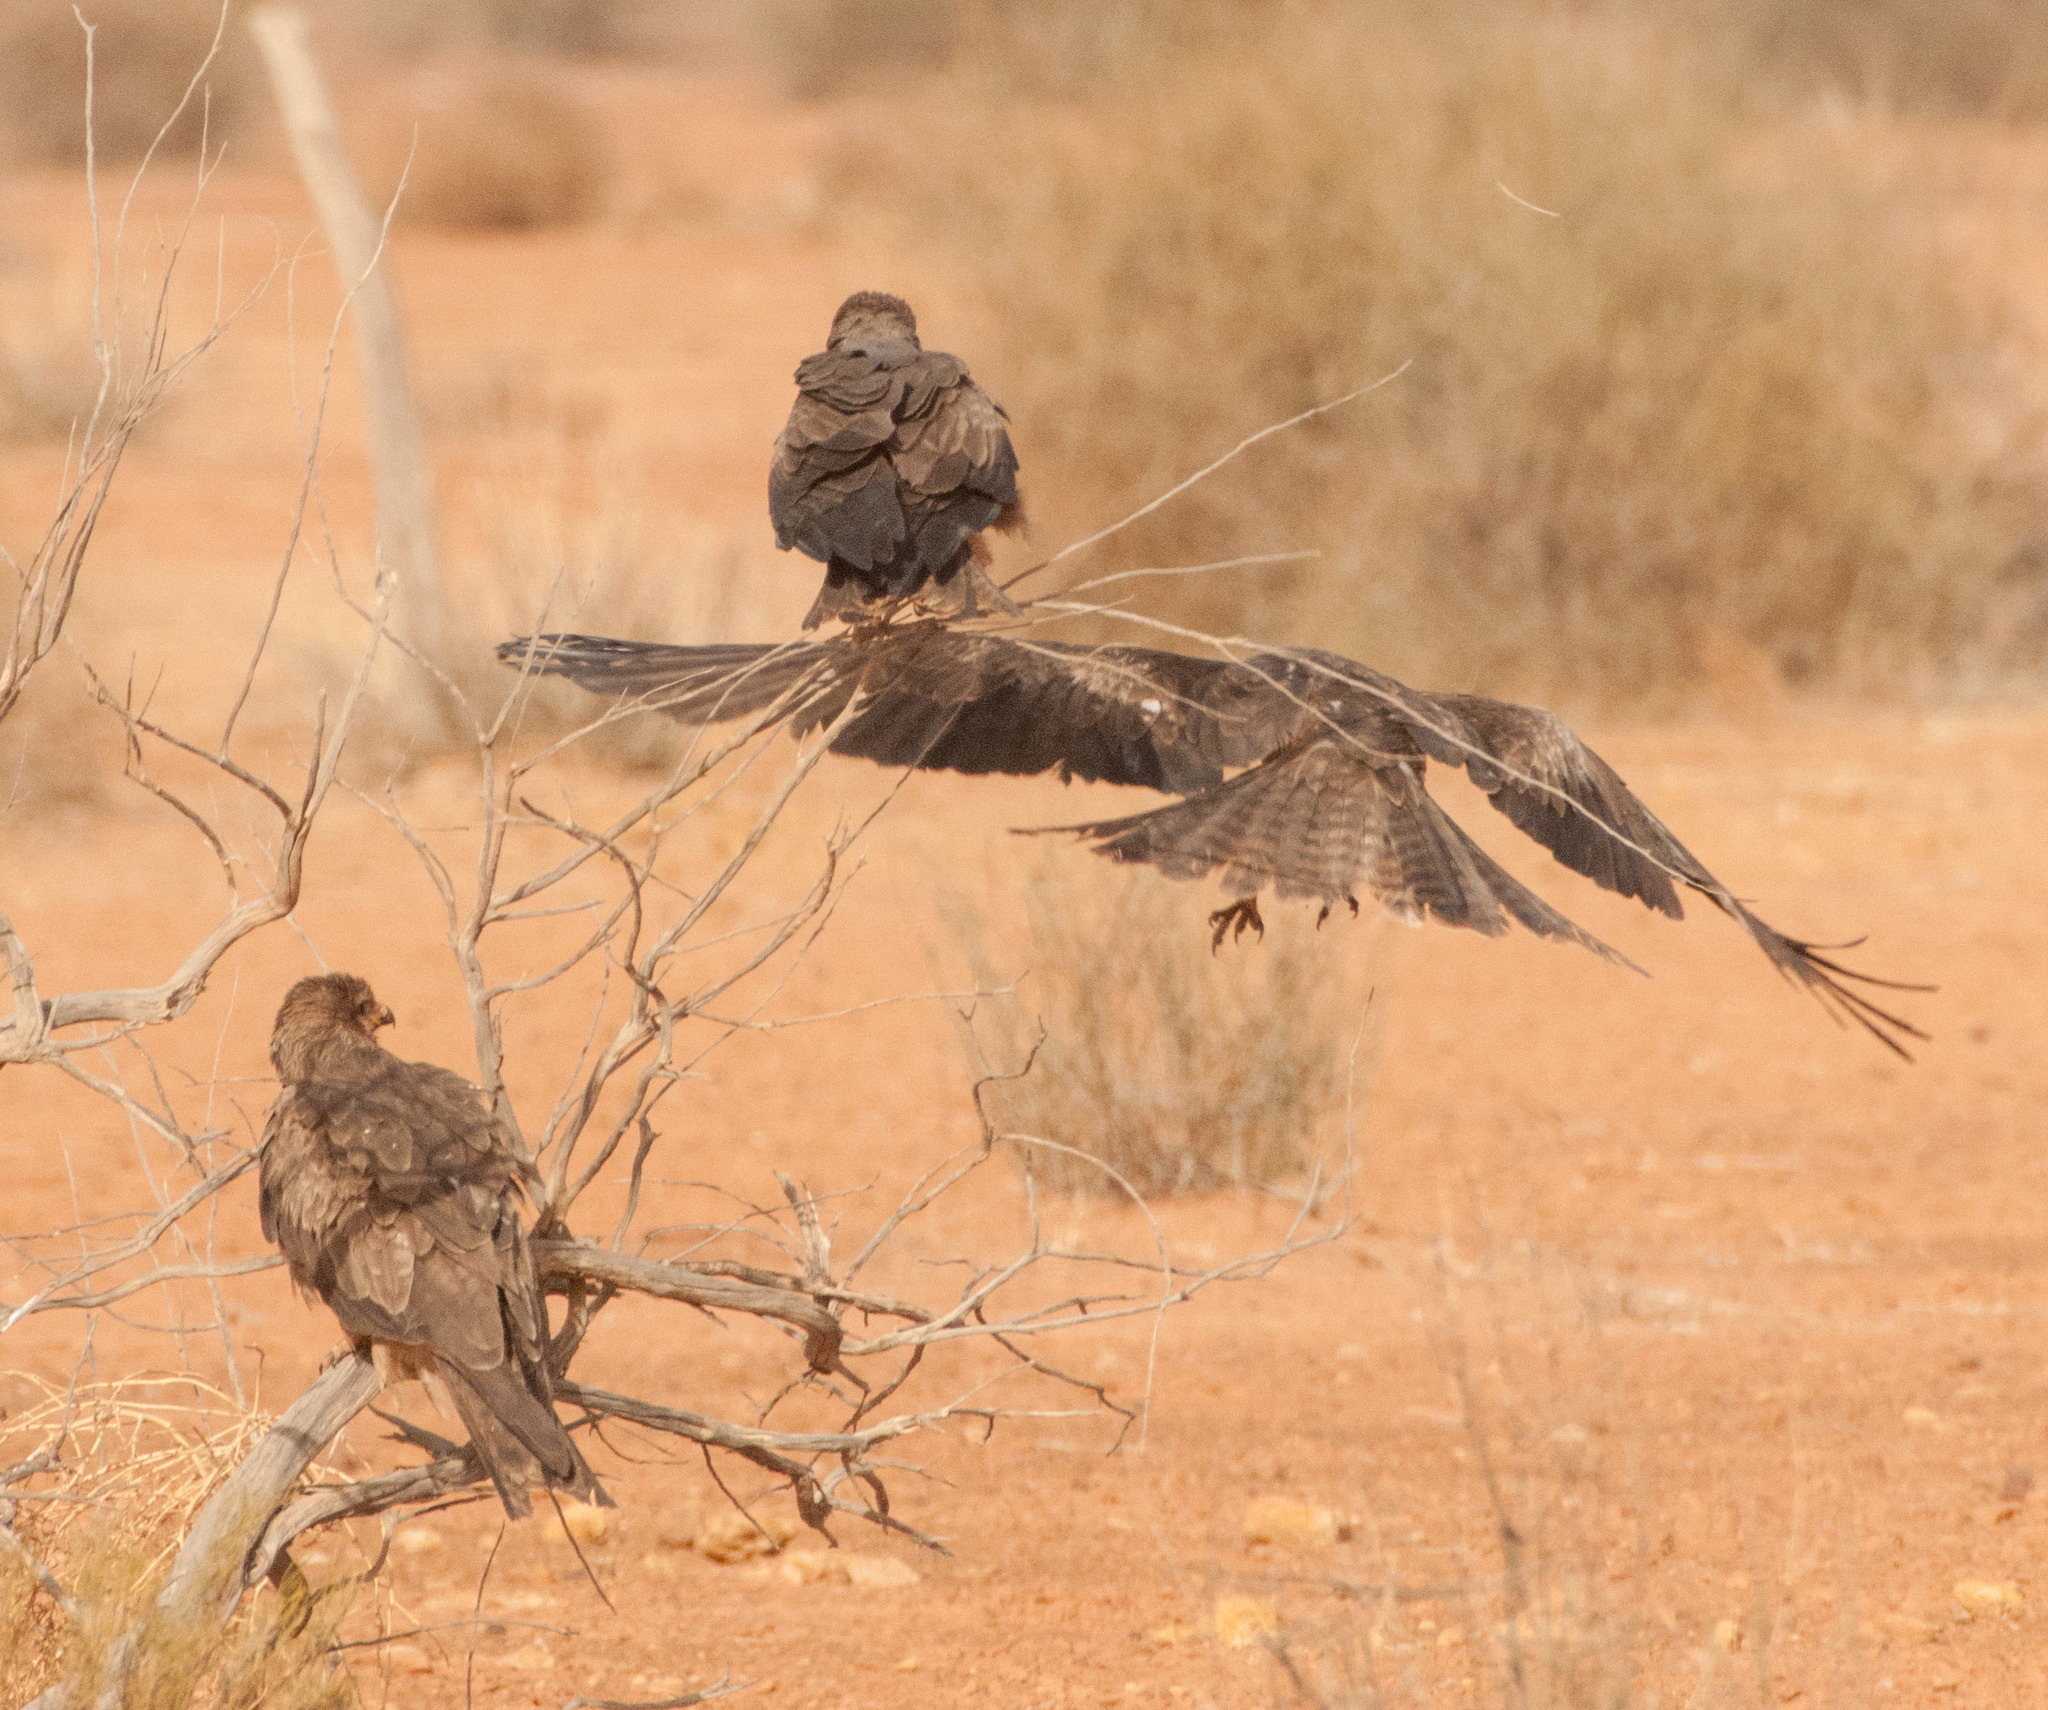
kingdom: Animalia
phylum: Chordata
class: Aves
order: Accipitriformes
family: Accipitridae
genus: Milvus
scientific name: Milvus migrans
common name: Black kite
